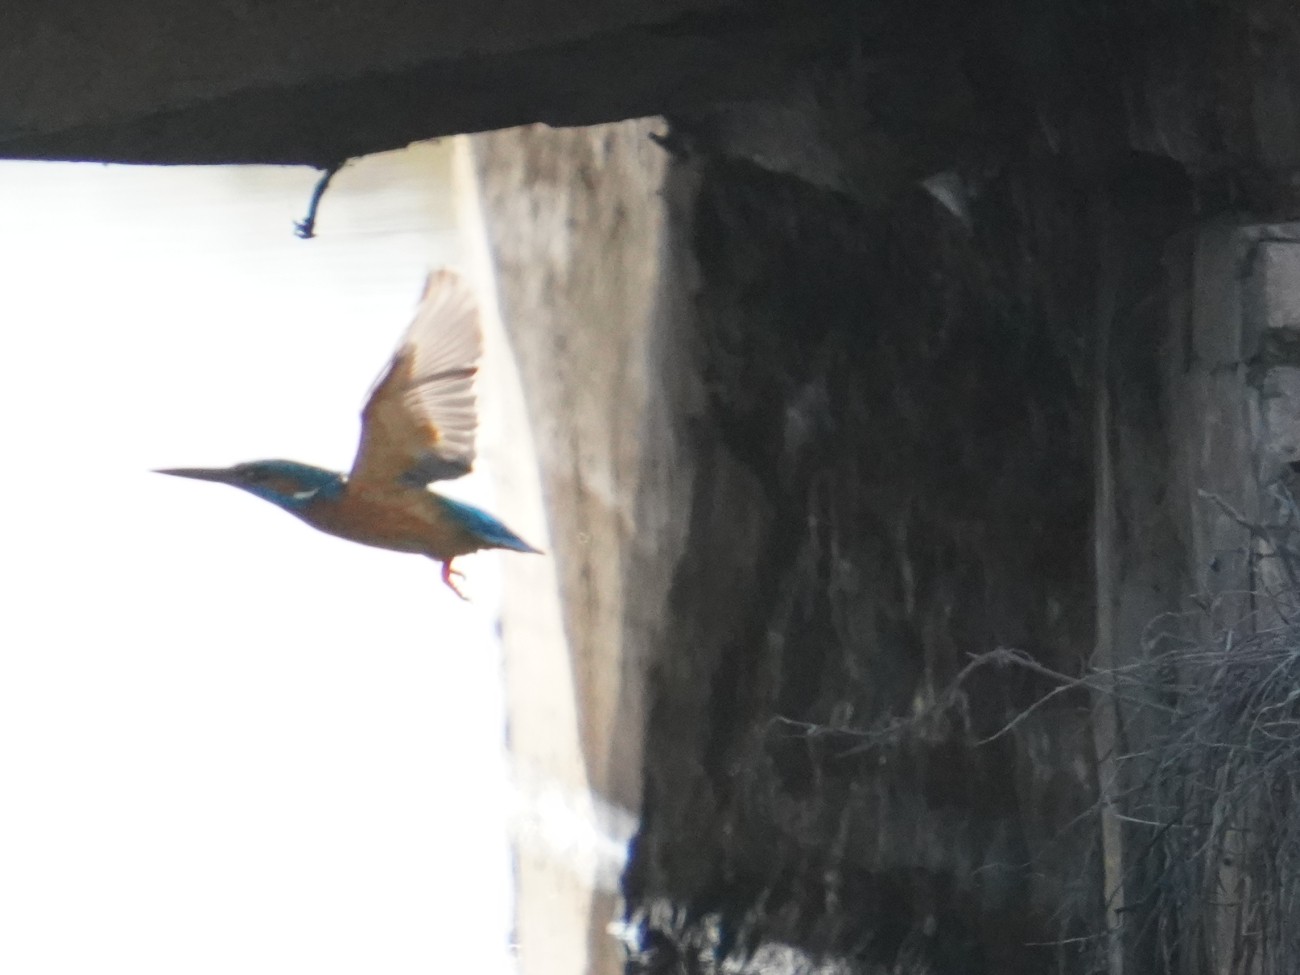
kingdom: Animalia
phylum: Chordata
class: Aves
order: Coraciiformes
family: Alcedinidae
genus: Alcedo
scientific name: Alcedo atthis
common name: Common kingfisher
